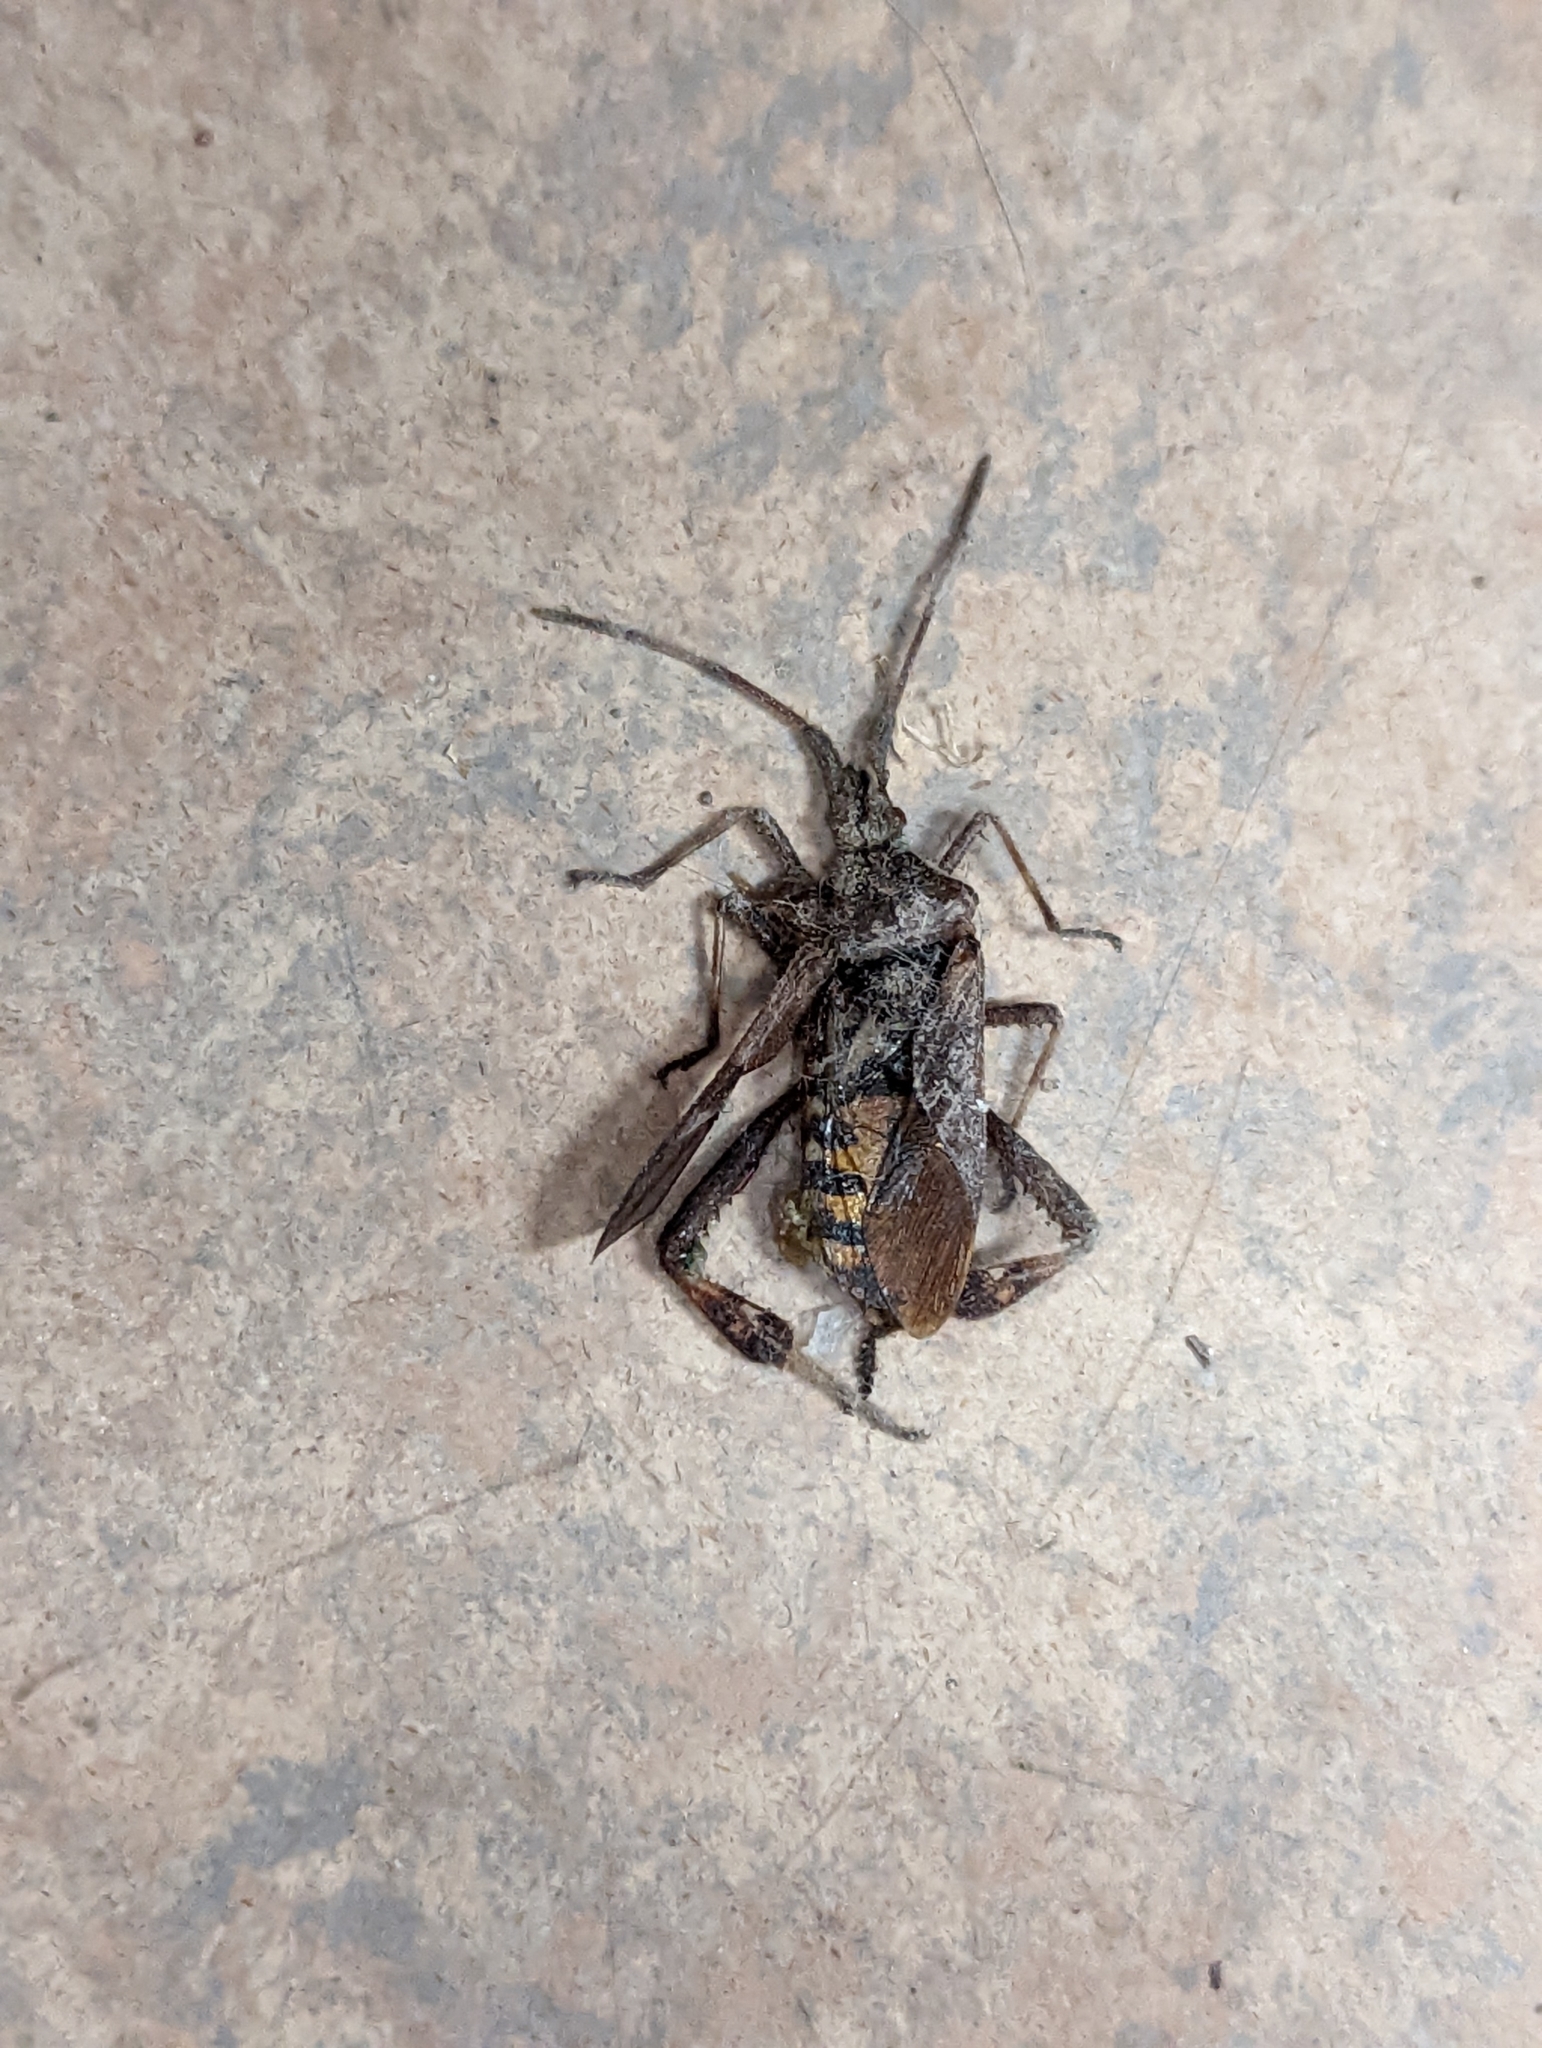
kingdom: Animalia
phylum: Arthropoda
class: Insecta
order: Hemiptera
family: Coreidae
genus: Leptoglossus
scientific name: Leptoglossus occidentalis
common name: Western conifer-seed bug
